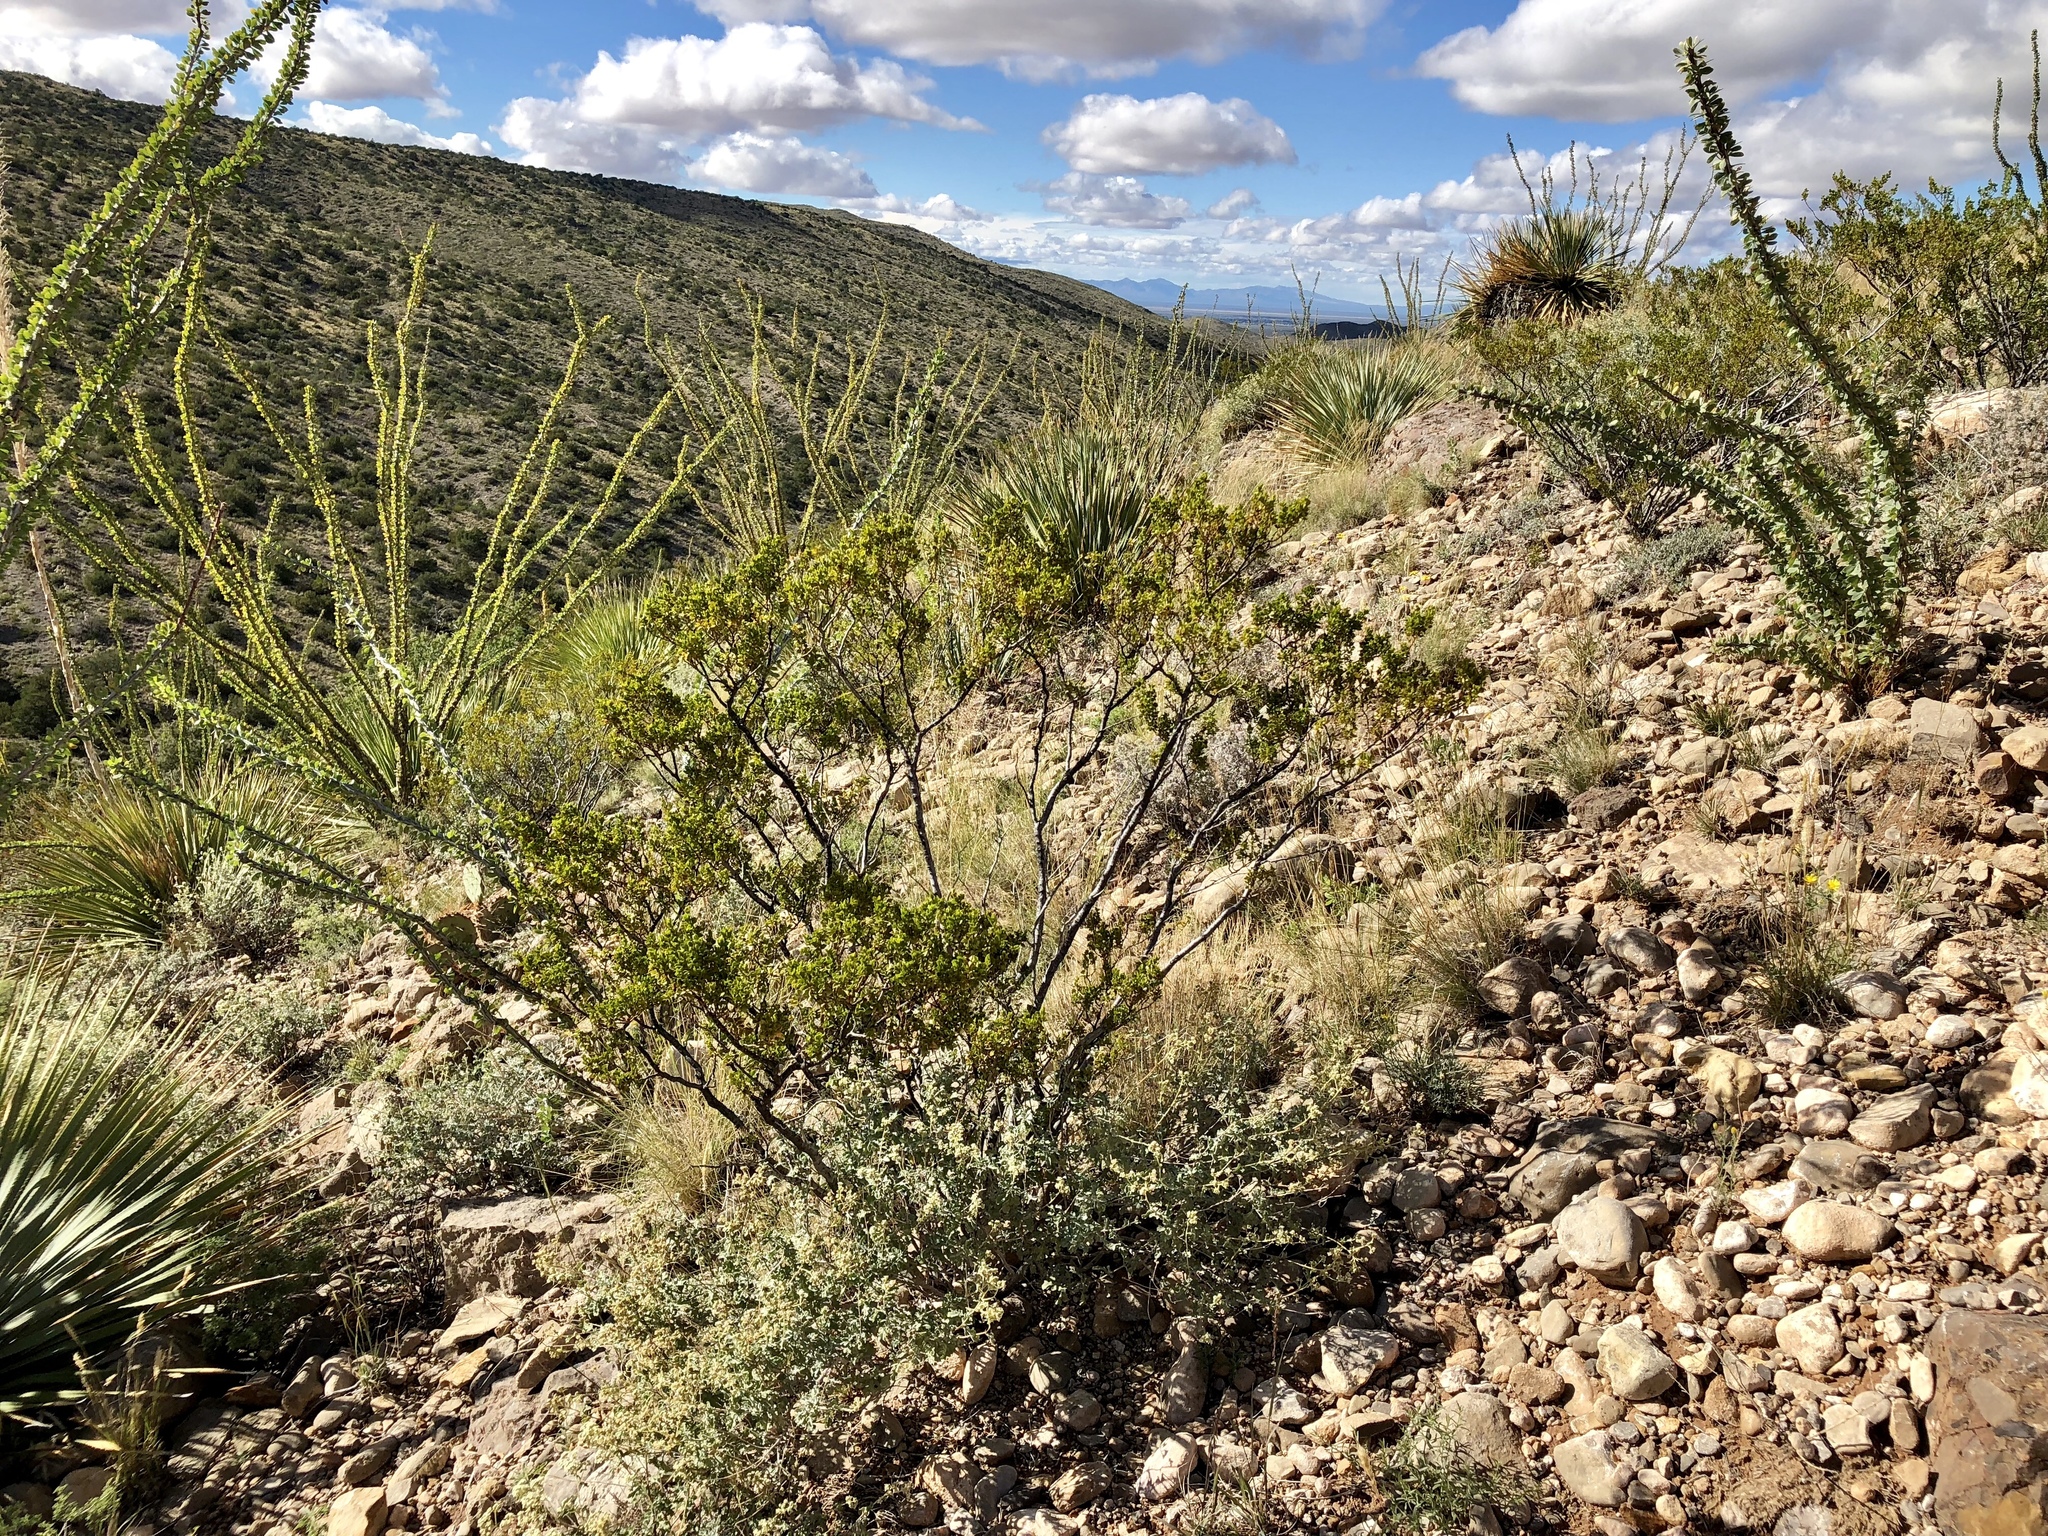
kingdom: Plantae
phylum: Tracheophyta
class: Magnoliopsida
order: Zygophyllales
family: Zygophyllaceae
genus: Larrea
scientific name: Larrea tridentata
